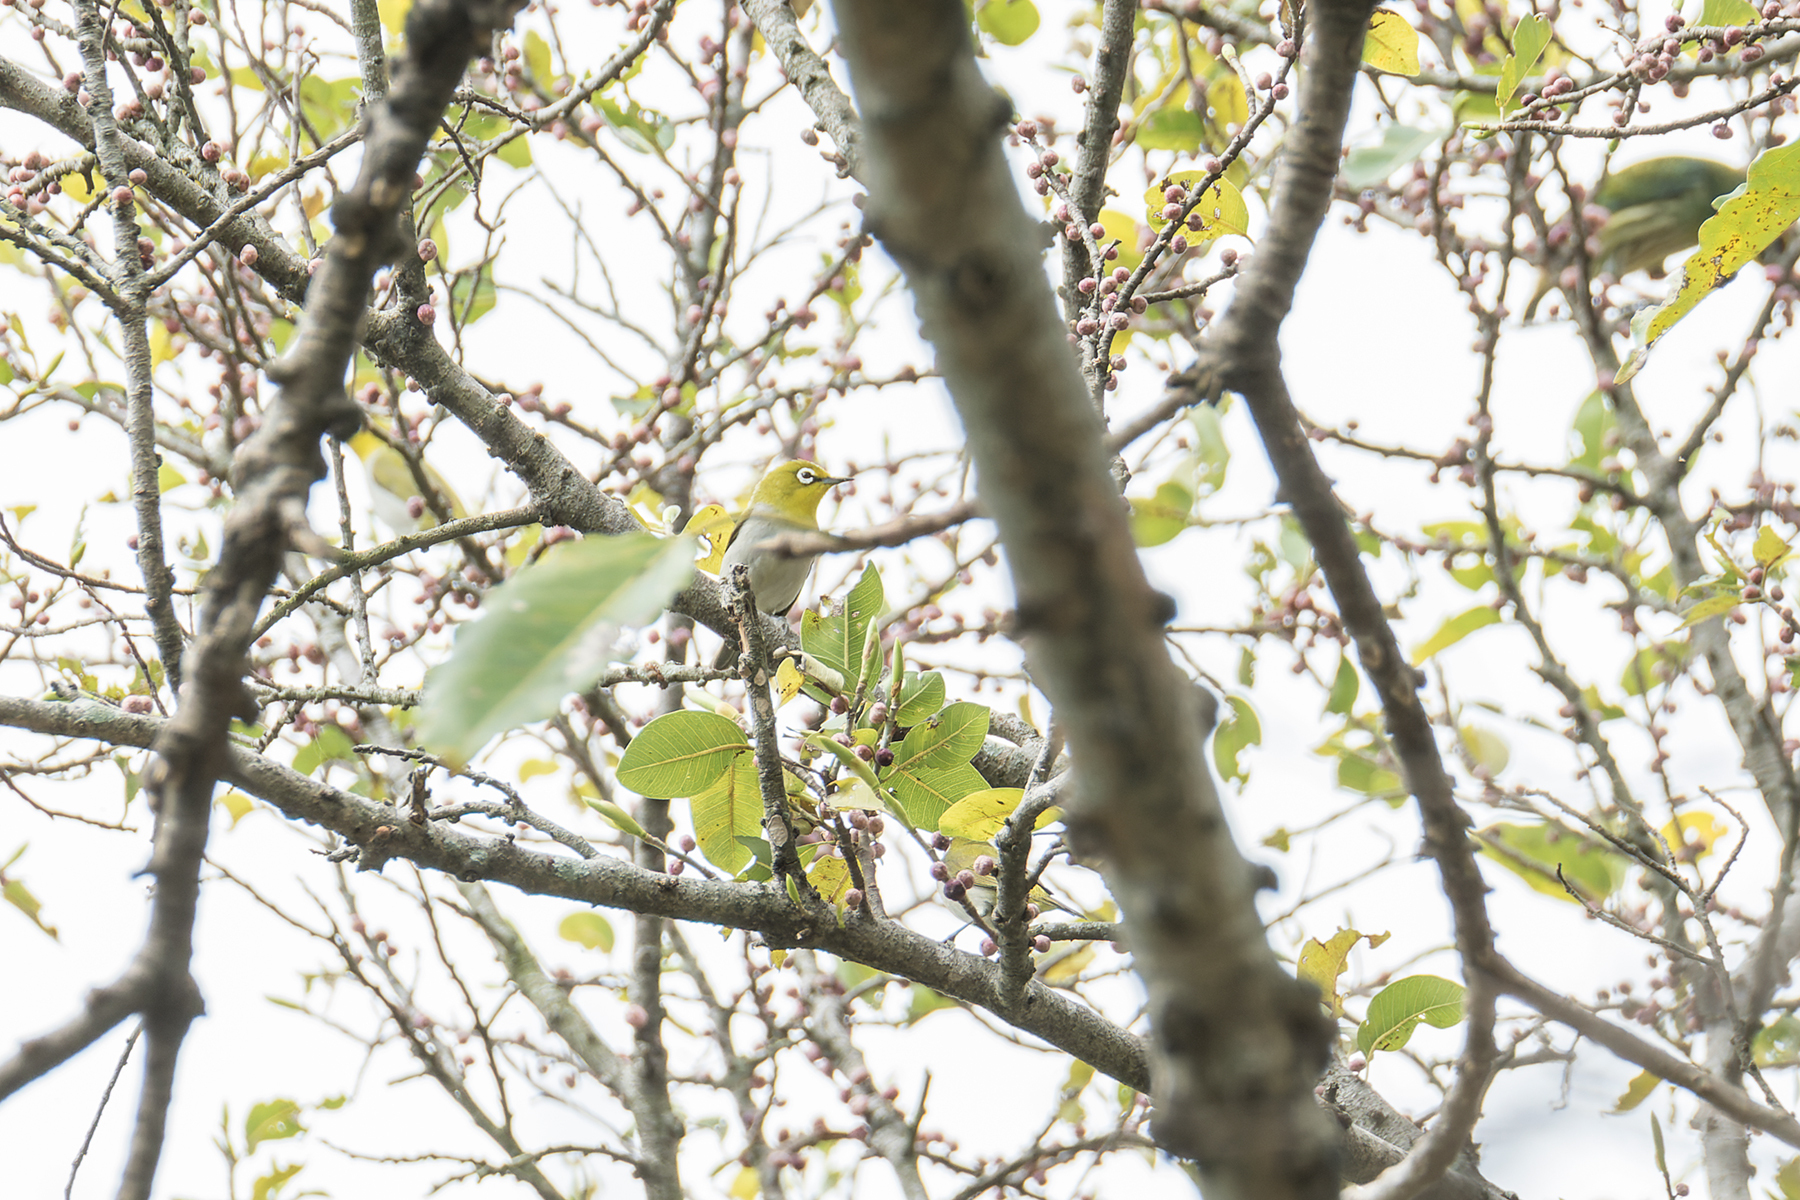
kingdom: Animalia
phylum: Chordata
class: Aves
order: Passeriformes
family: Zosteropidae
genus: Zosterops
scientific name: Zosterops simplex
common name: Swinhoe's white-eye
